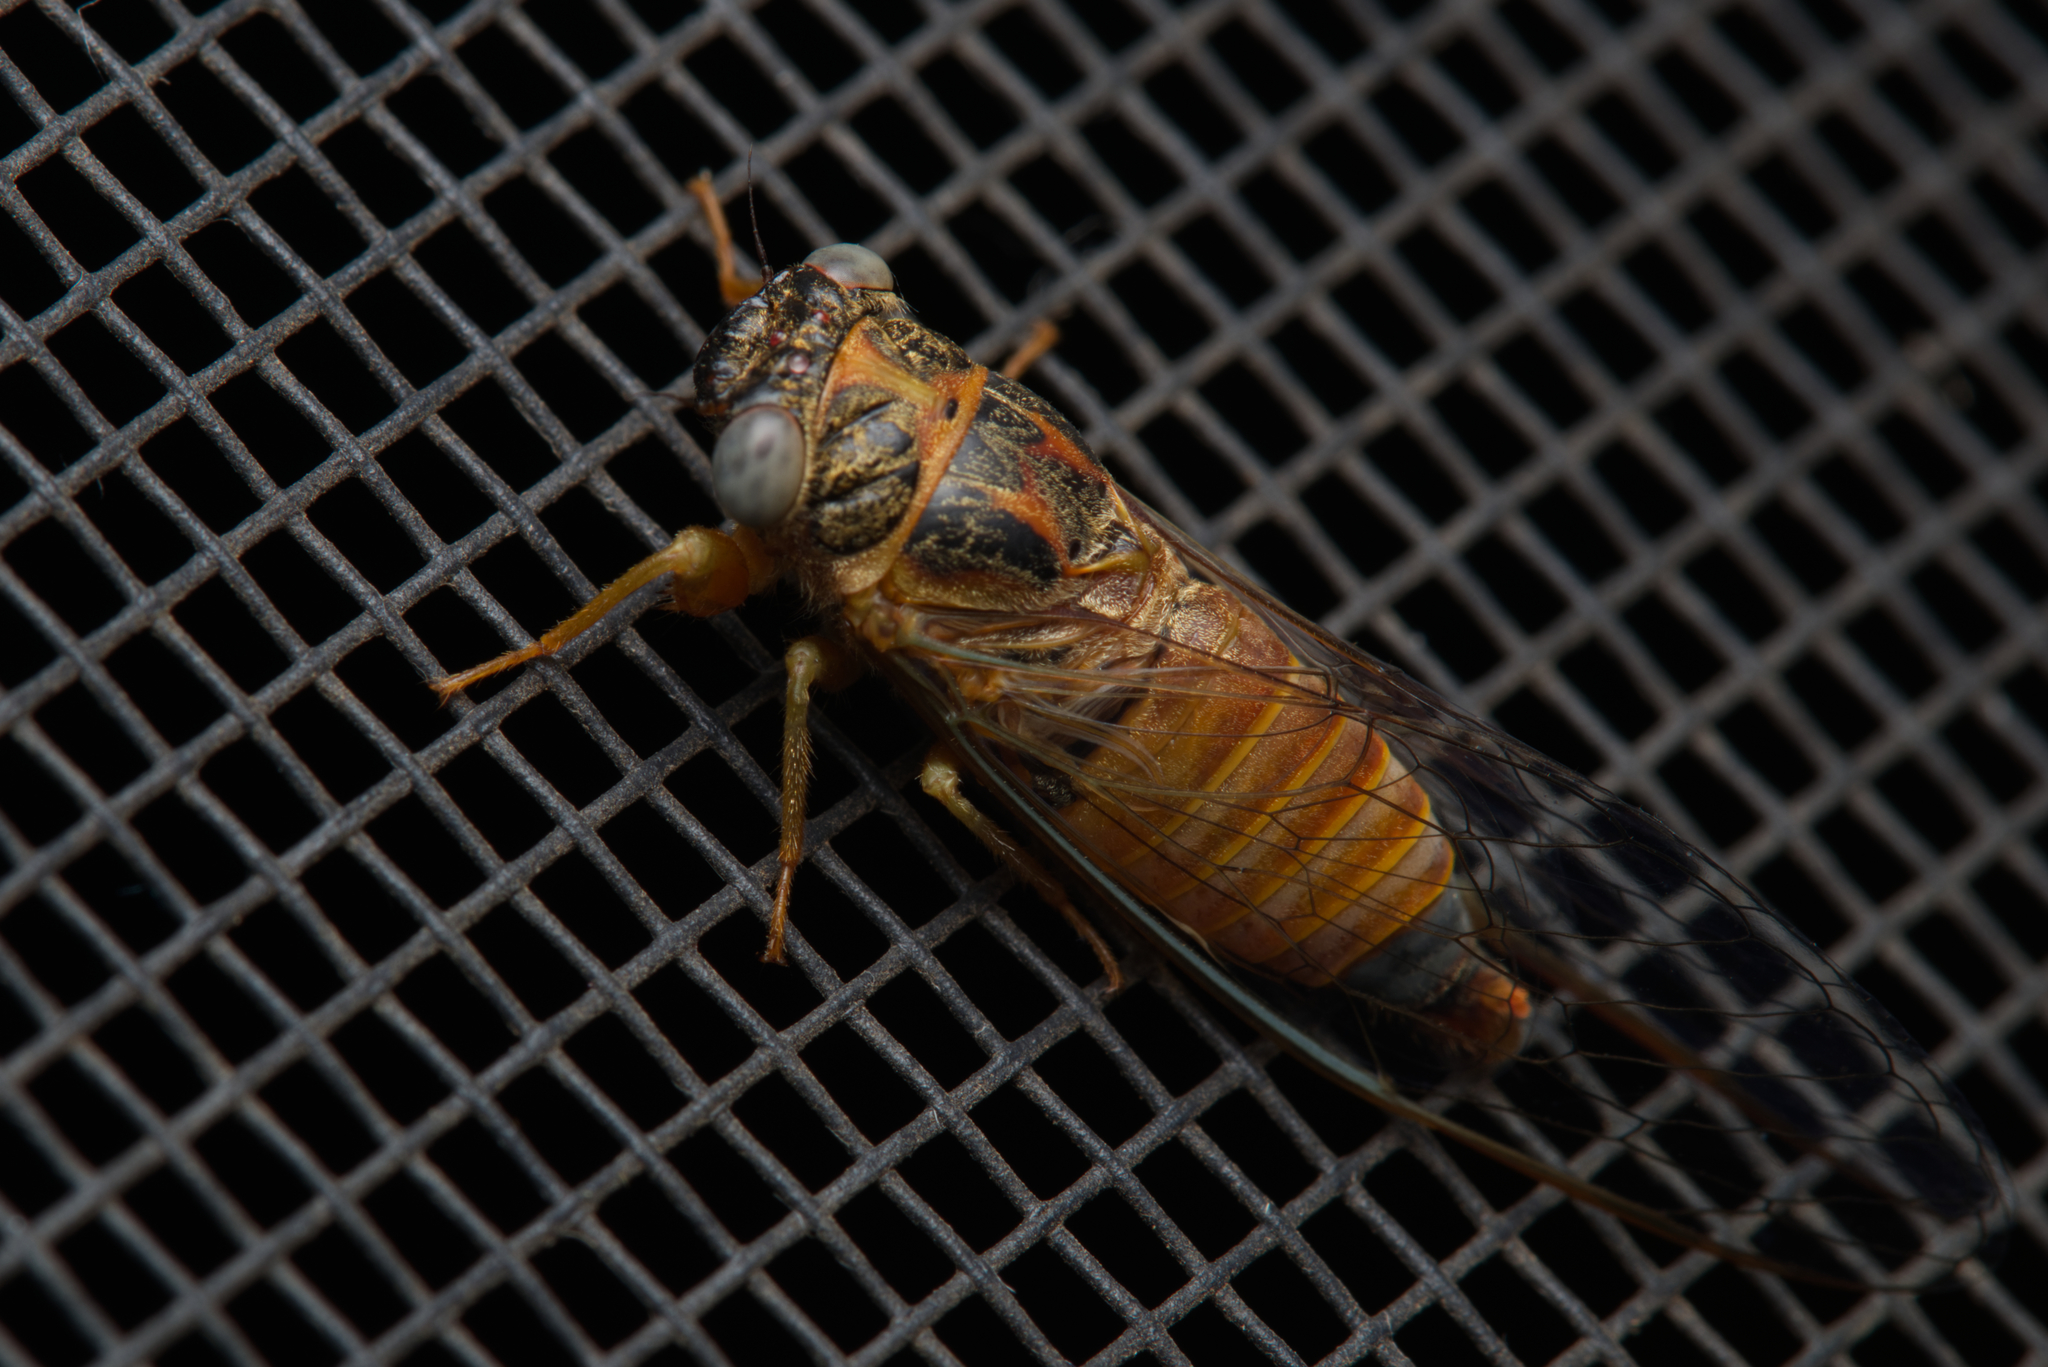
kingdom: Animalia
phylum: Arthropoda
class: Insecta
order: Hemiptera
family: Cicadidae
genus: Palapsalta
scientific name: Palapsalta eyrei
